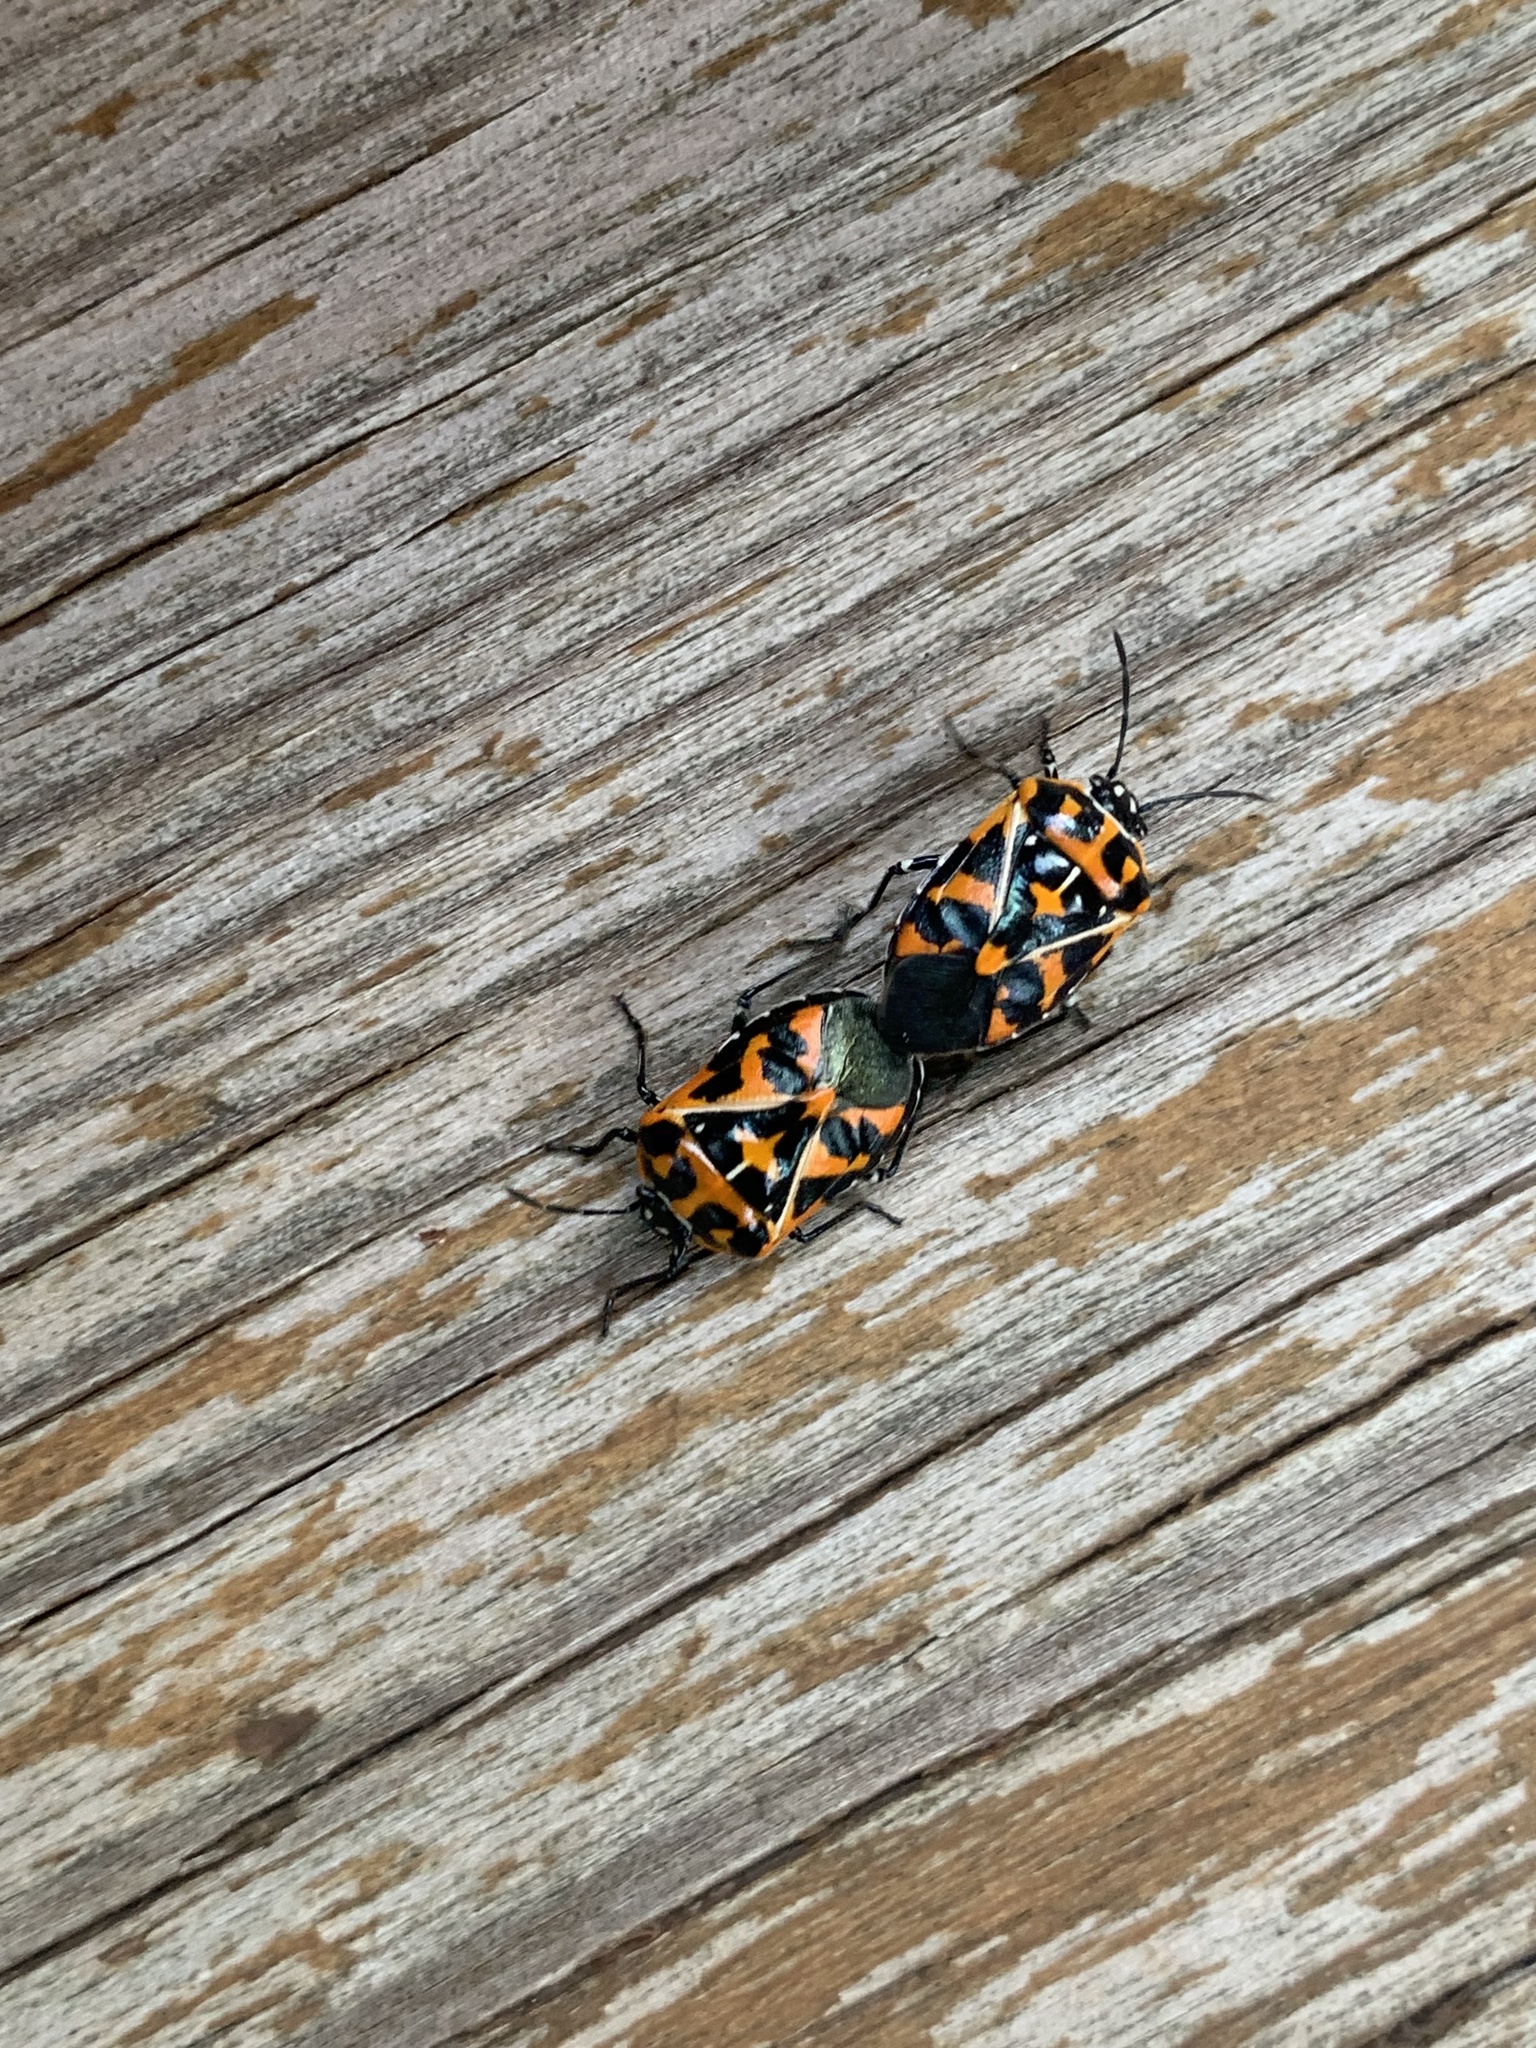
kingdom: Animalia
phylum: Arthropoda
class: Insecta
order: Hemiptera
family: Pentatomidae
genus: Murgantia
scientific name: Murgantia histrionica
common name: Harlequin bug
